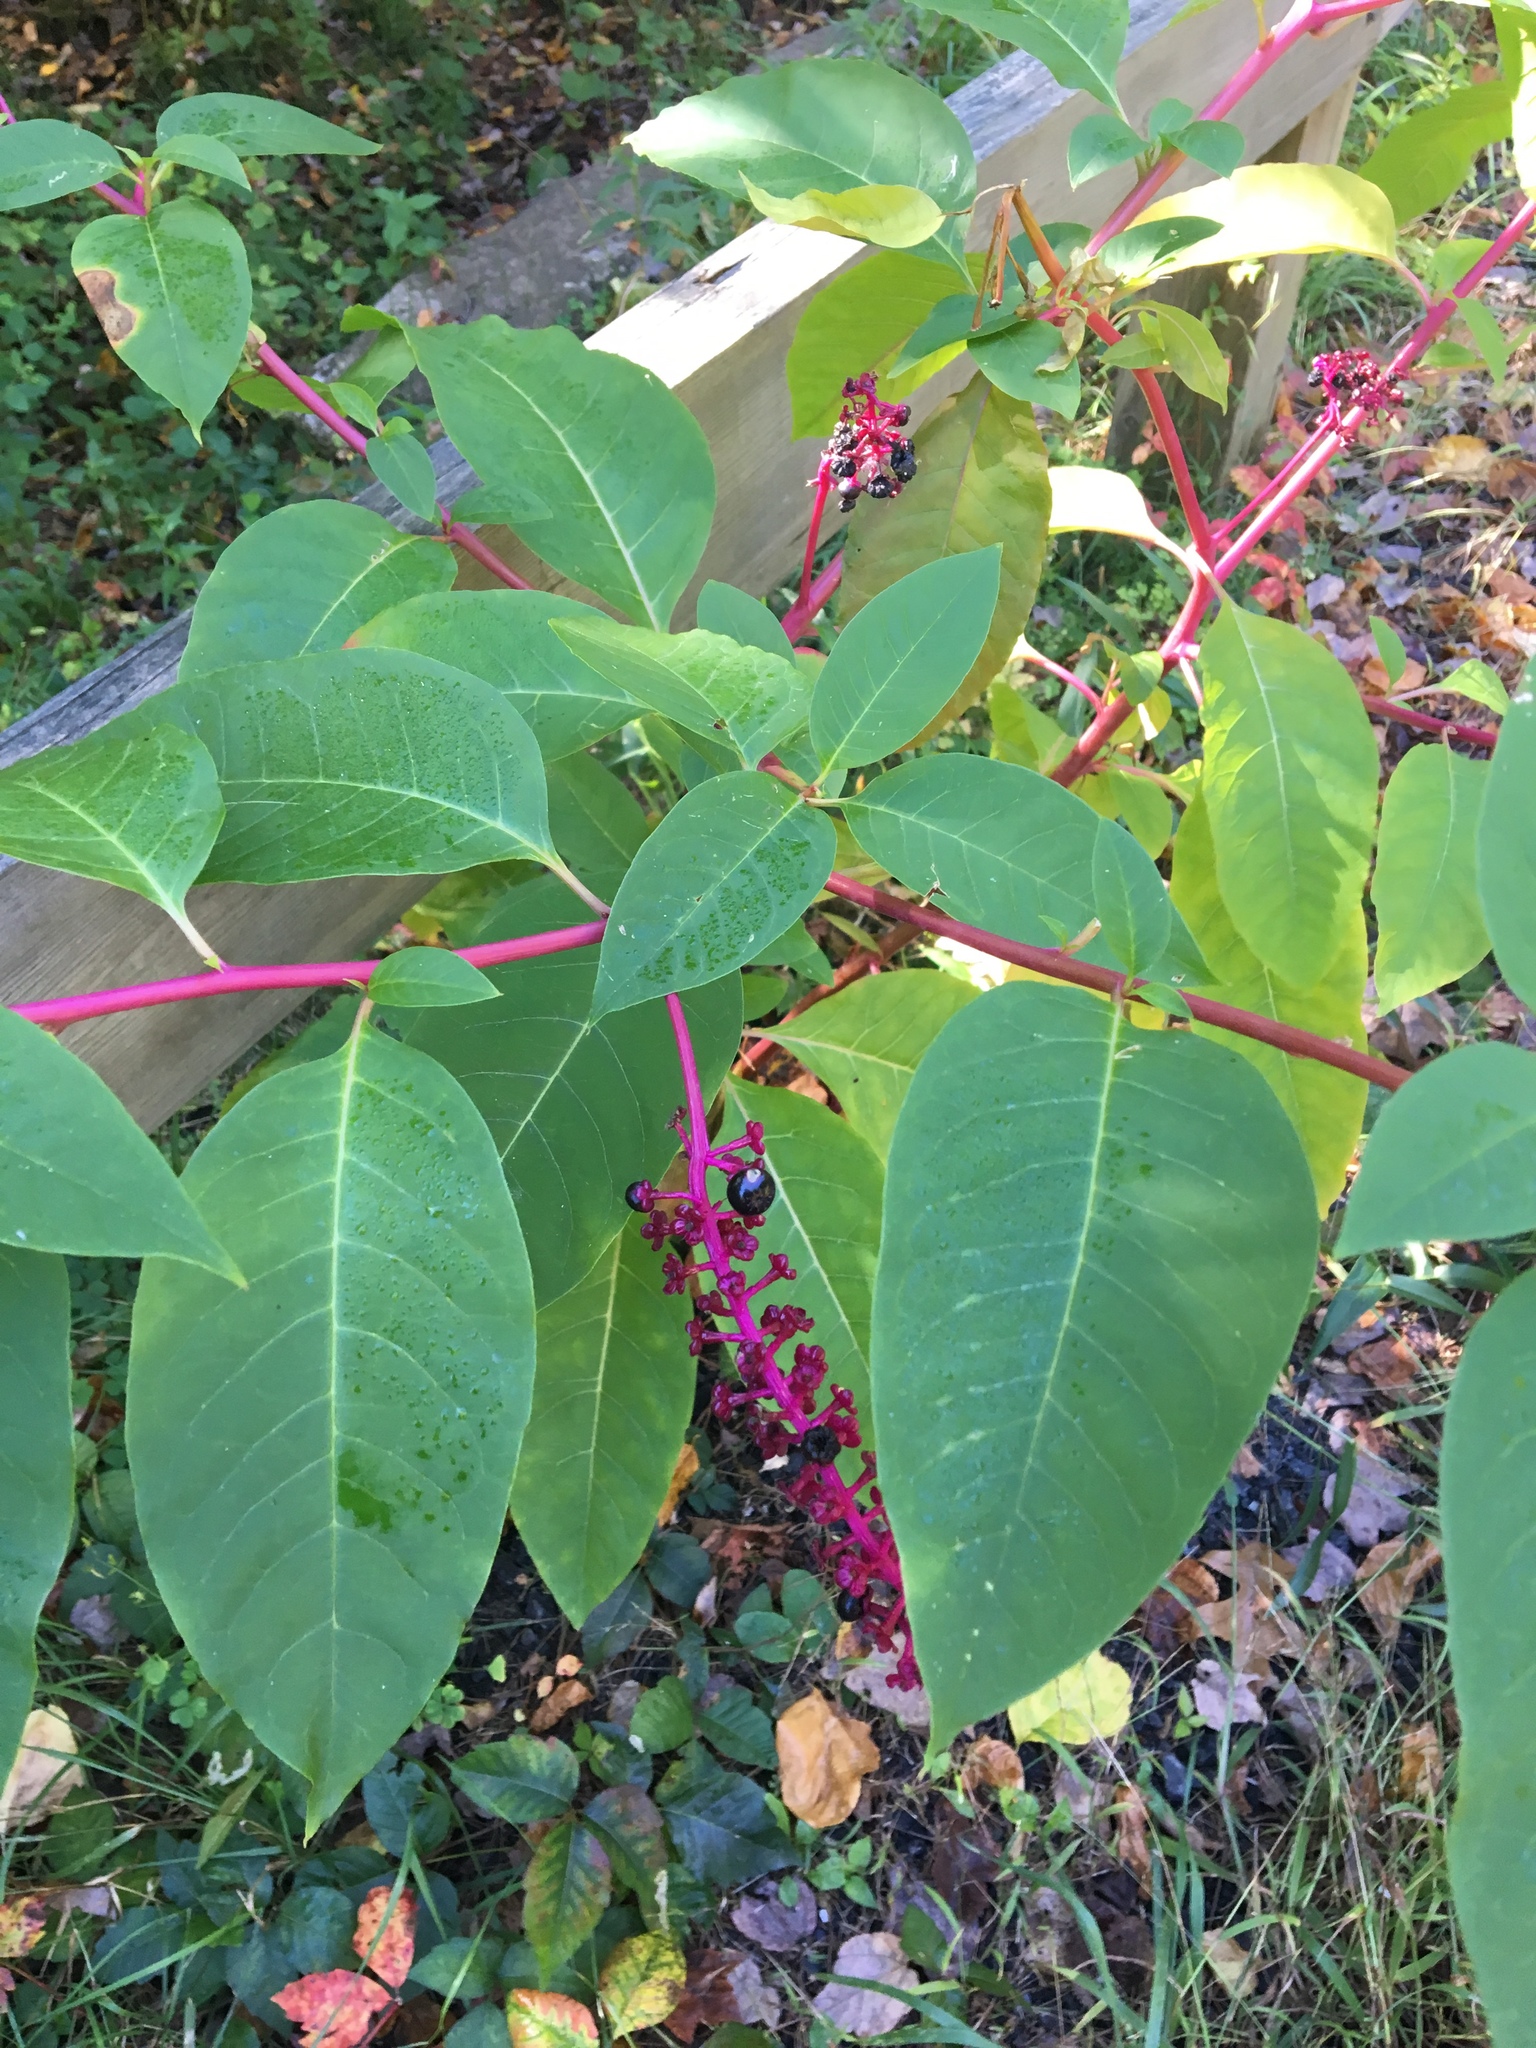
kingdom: Plantae
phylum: Tracheophyta
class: Magnoliopsida
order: Caryophyllales
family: Phytolaccaceae
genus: Phytolacca
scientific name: Phytolacca americana
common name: American pokeweed
